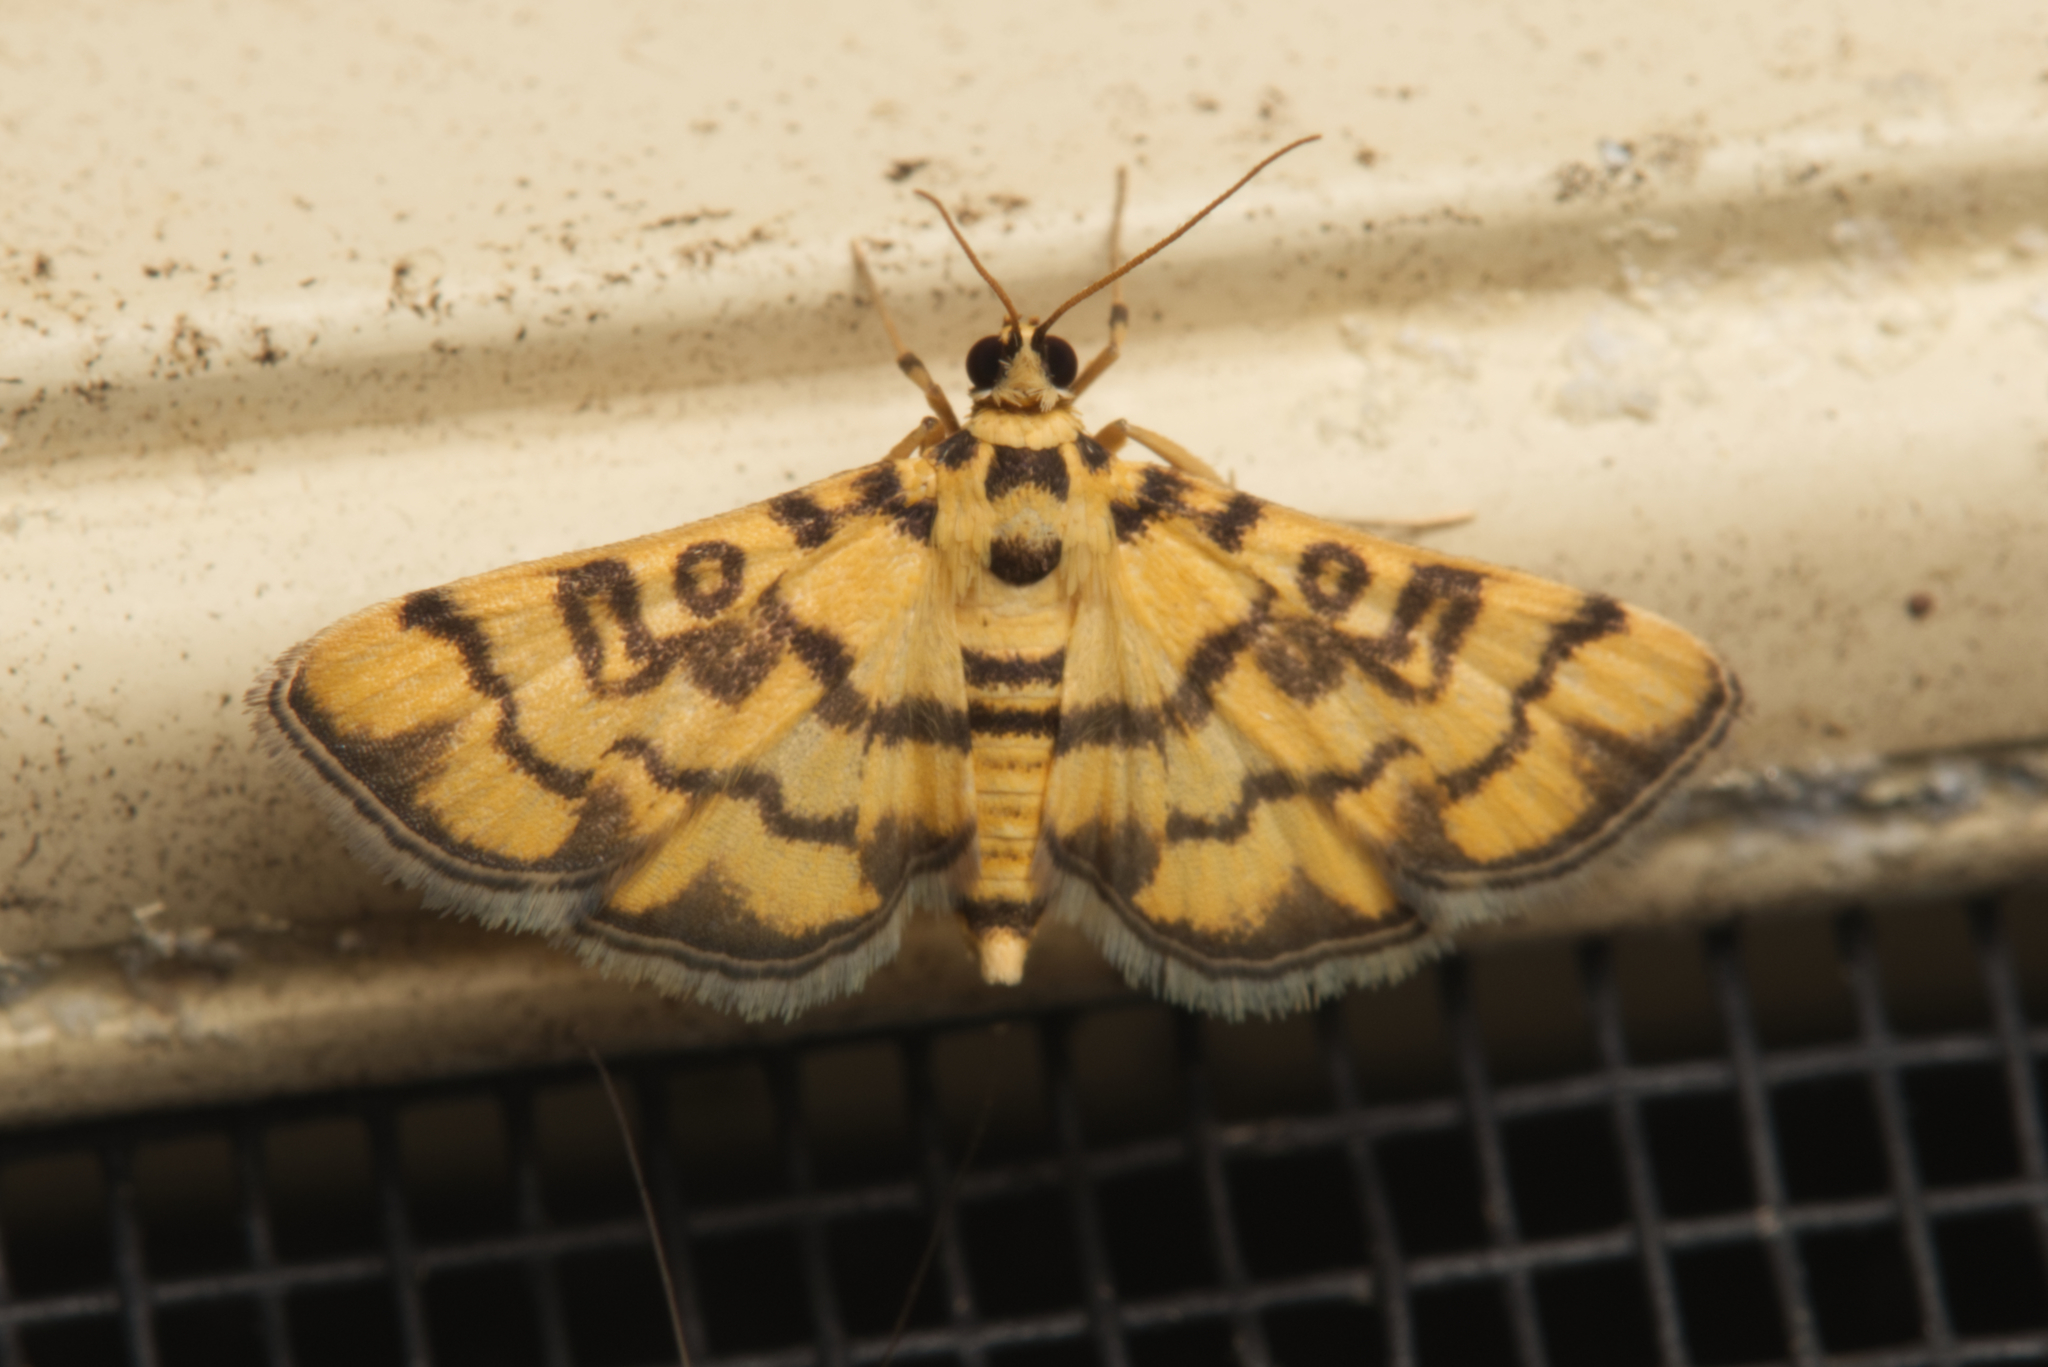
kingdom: Animalia
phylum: Arthropoda
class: Insecta
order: Lepidoptera
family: Crambidae
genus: Glycythyma
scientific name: Glycythyma chrysorycta
